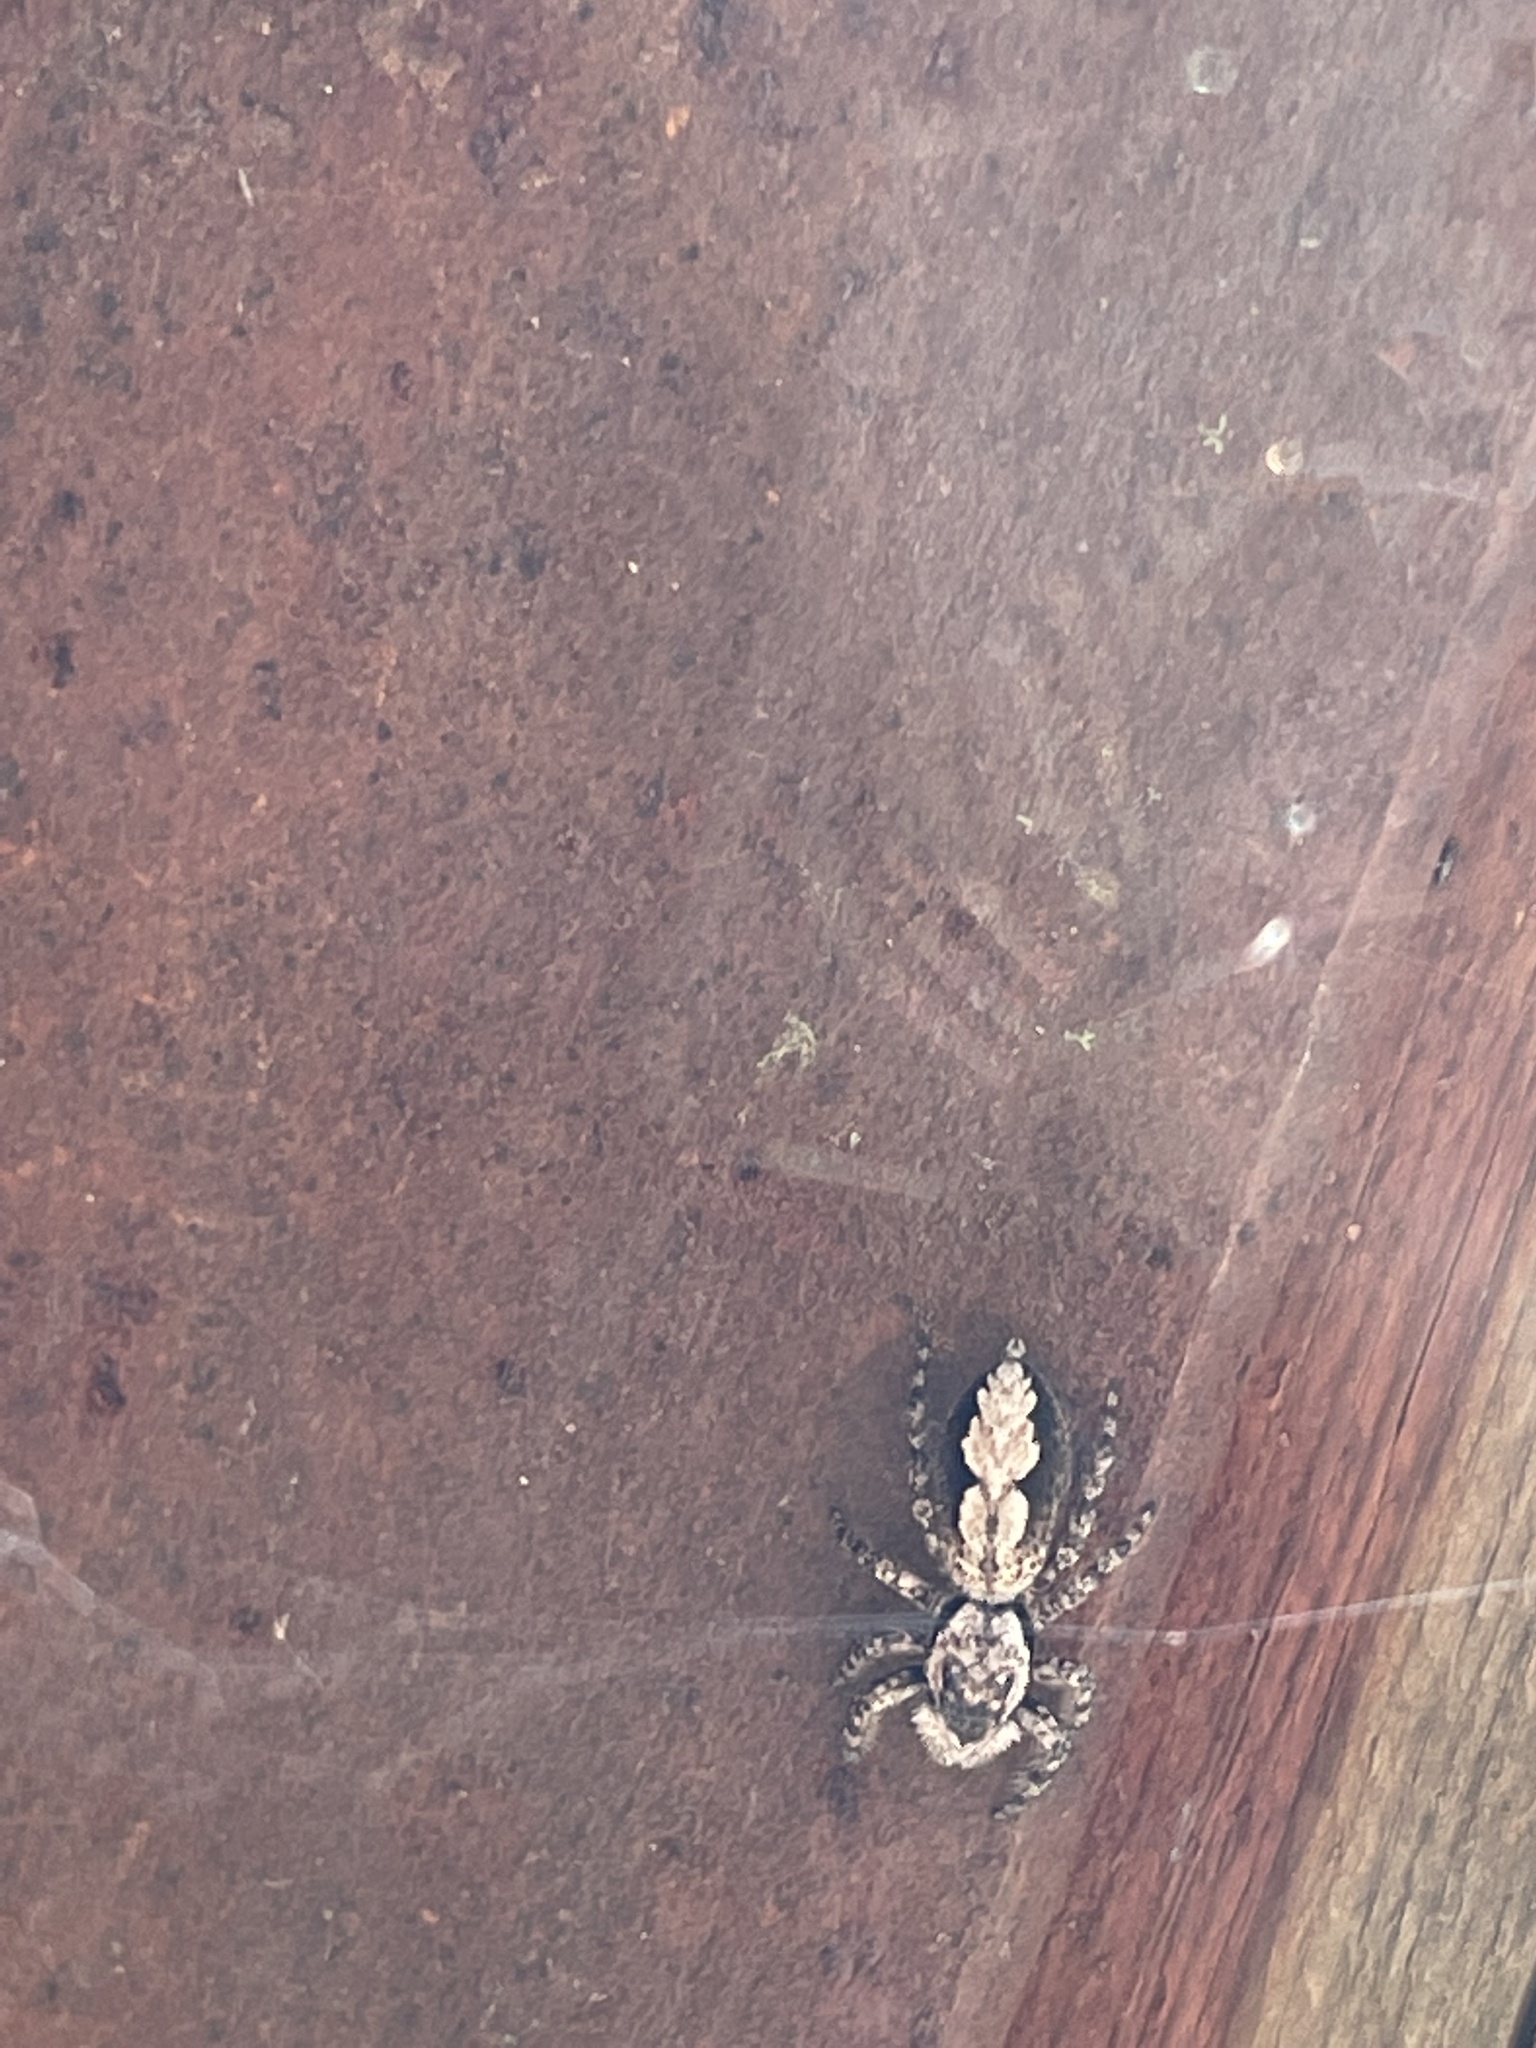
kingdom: Animalia
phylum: Arthropoda
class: Arachnida
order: Araneae
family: Salticidae
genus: Platycryptus
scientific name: Platycryptus undatus
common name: Tan jumping spider
